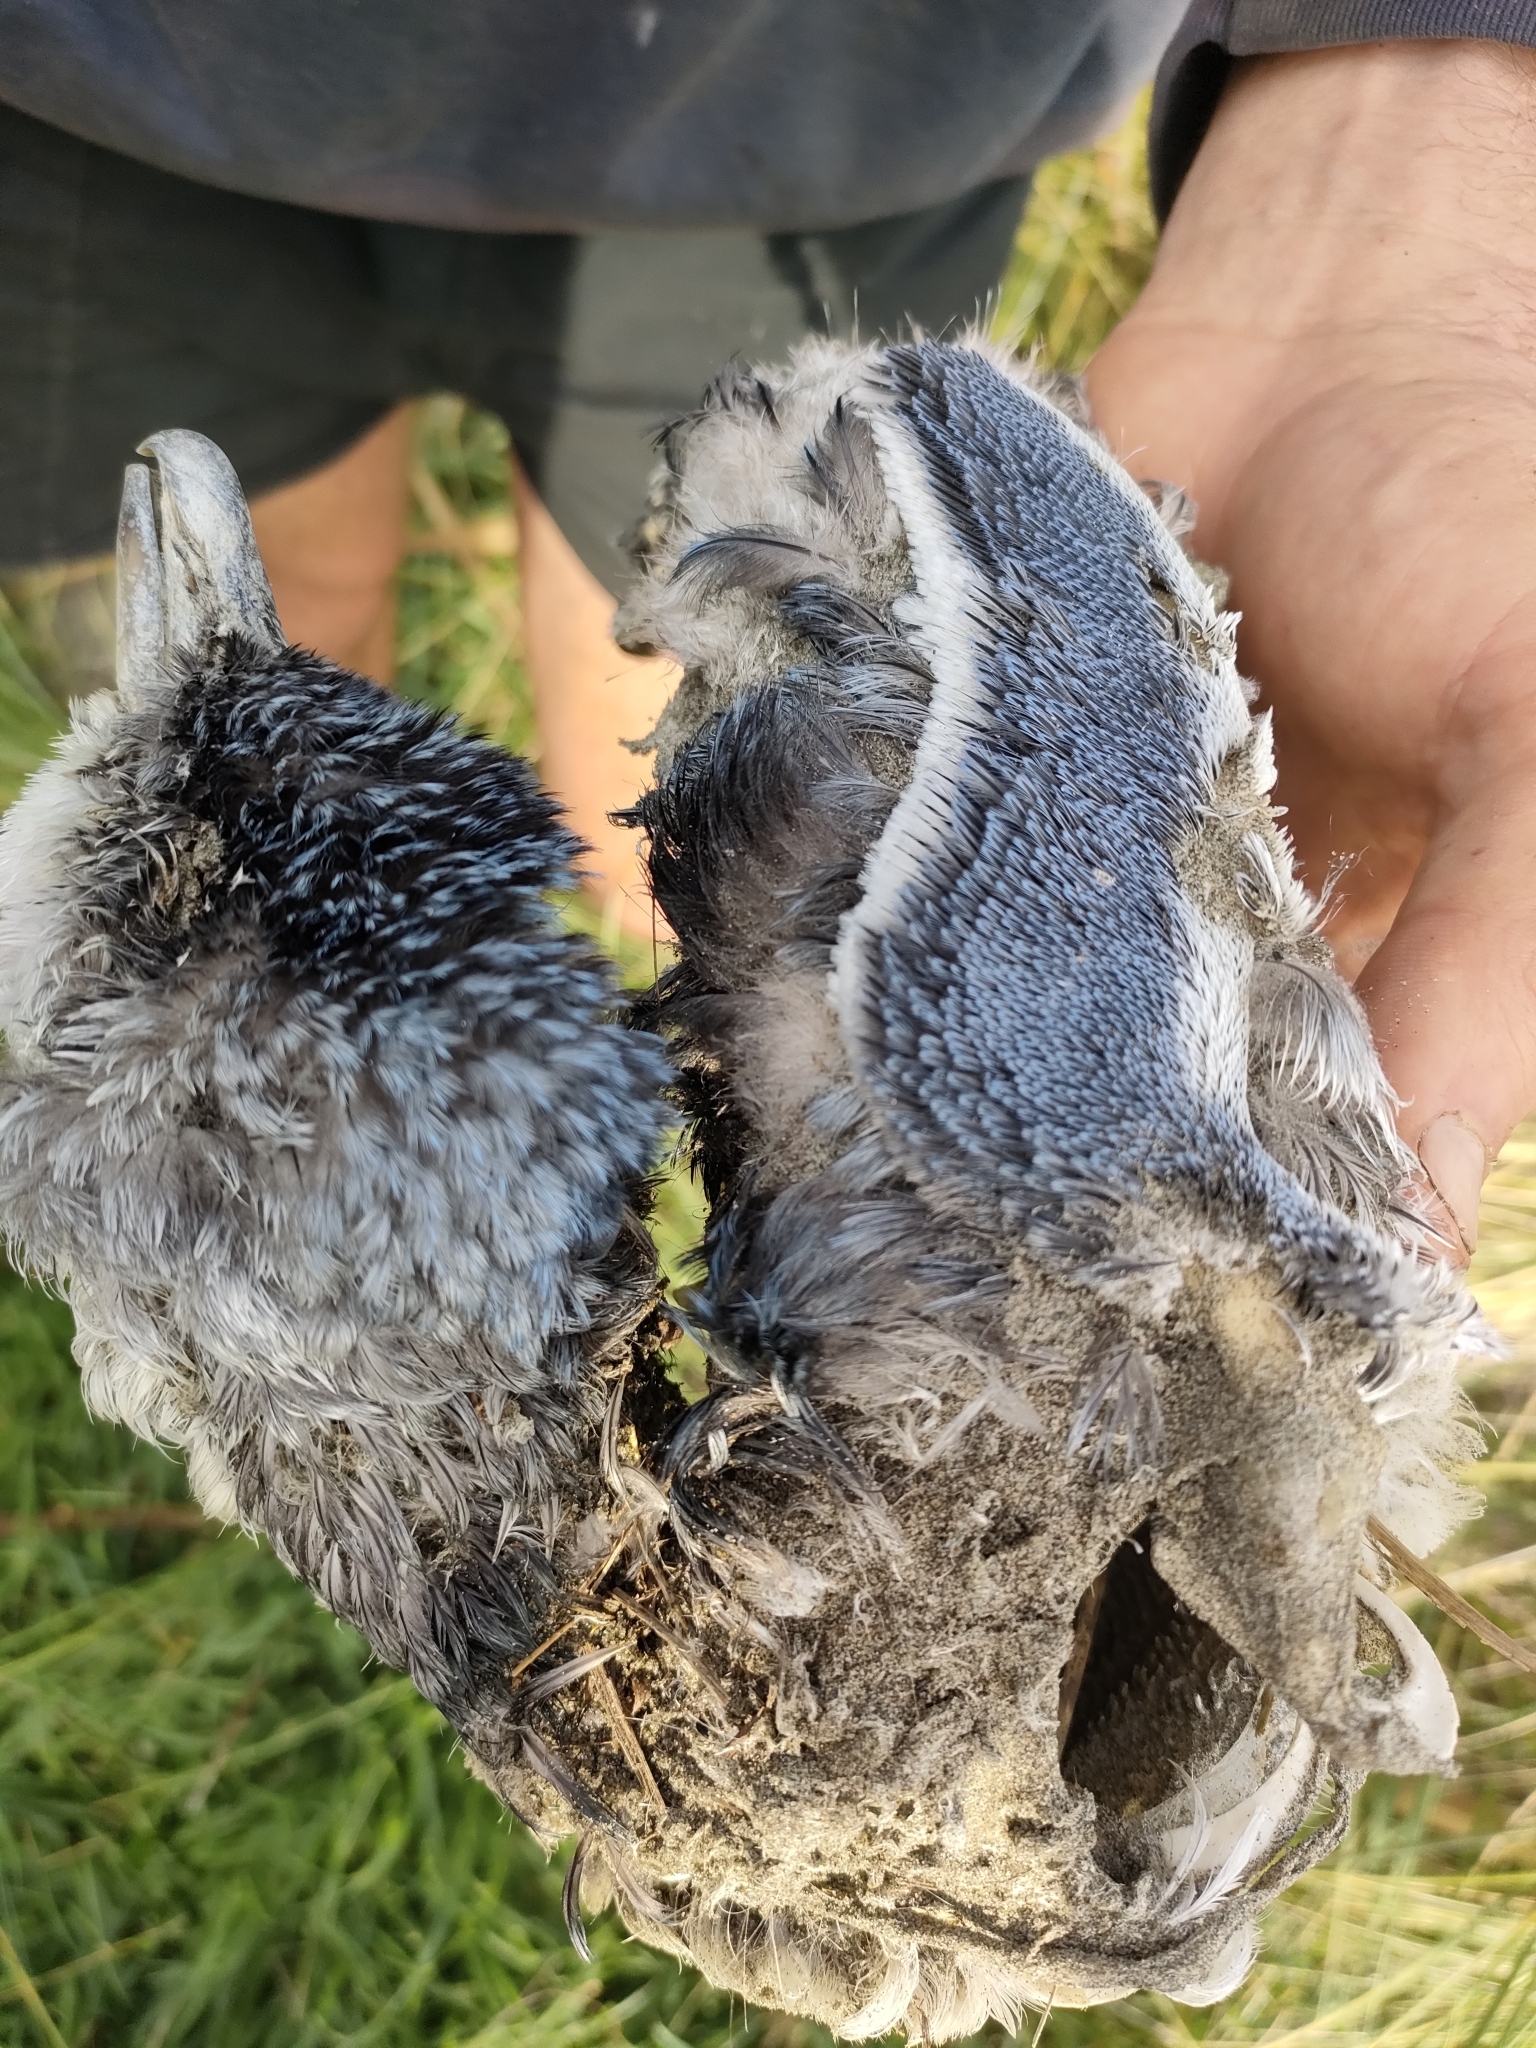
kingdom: Animalia
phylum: Chordata
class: Aves
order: Sphenisciformes
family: Spheniscidae
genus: Eudyptula
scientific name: Eudyptula minor
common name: Little penguin
